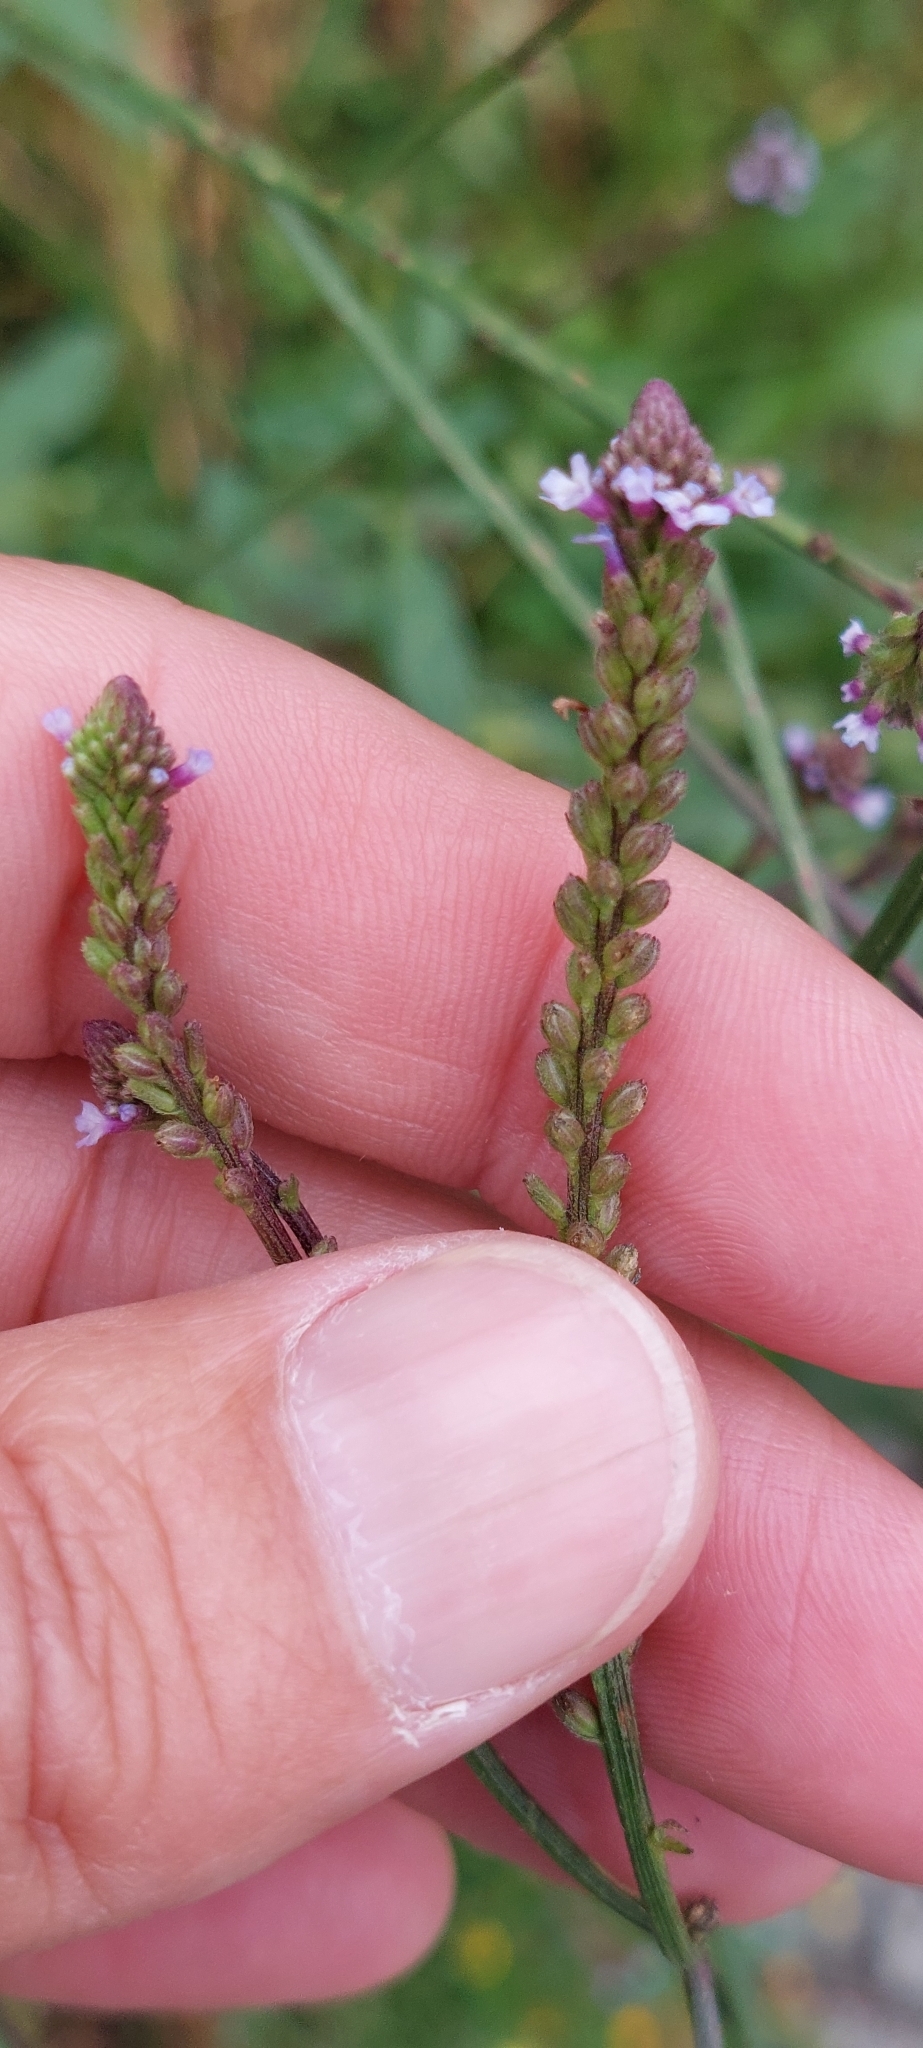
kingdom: Plantae
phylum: Tracheophyta
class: Magnoliopsida
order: Lamiales
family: Verbenaceae
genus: Verbena
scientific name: Verbena litoralis
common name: Seashore vervain
